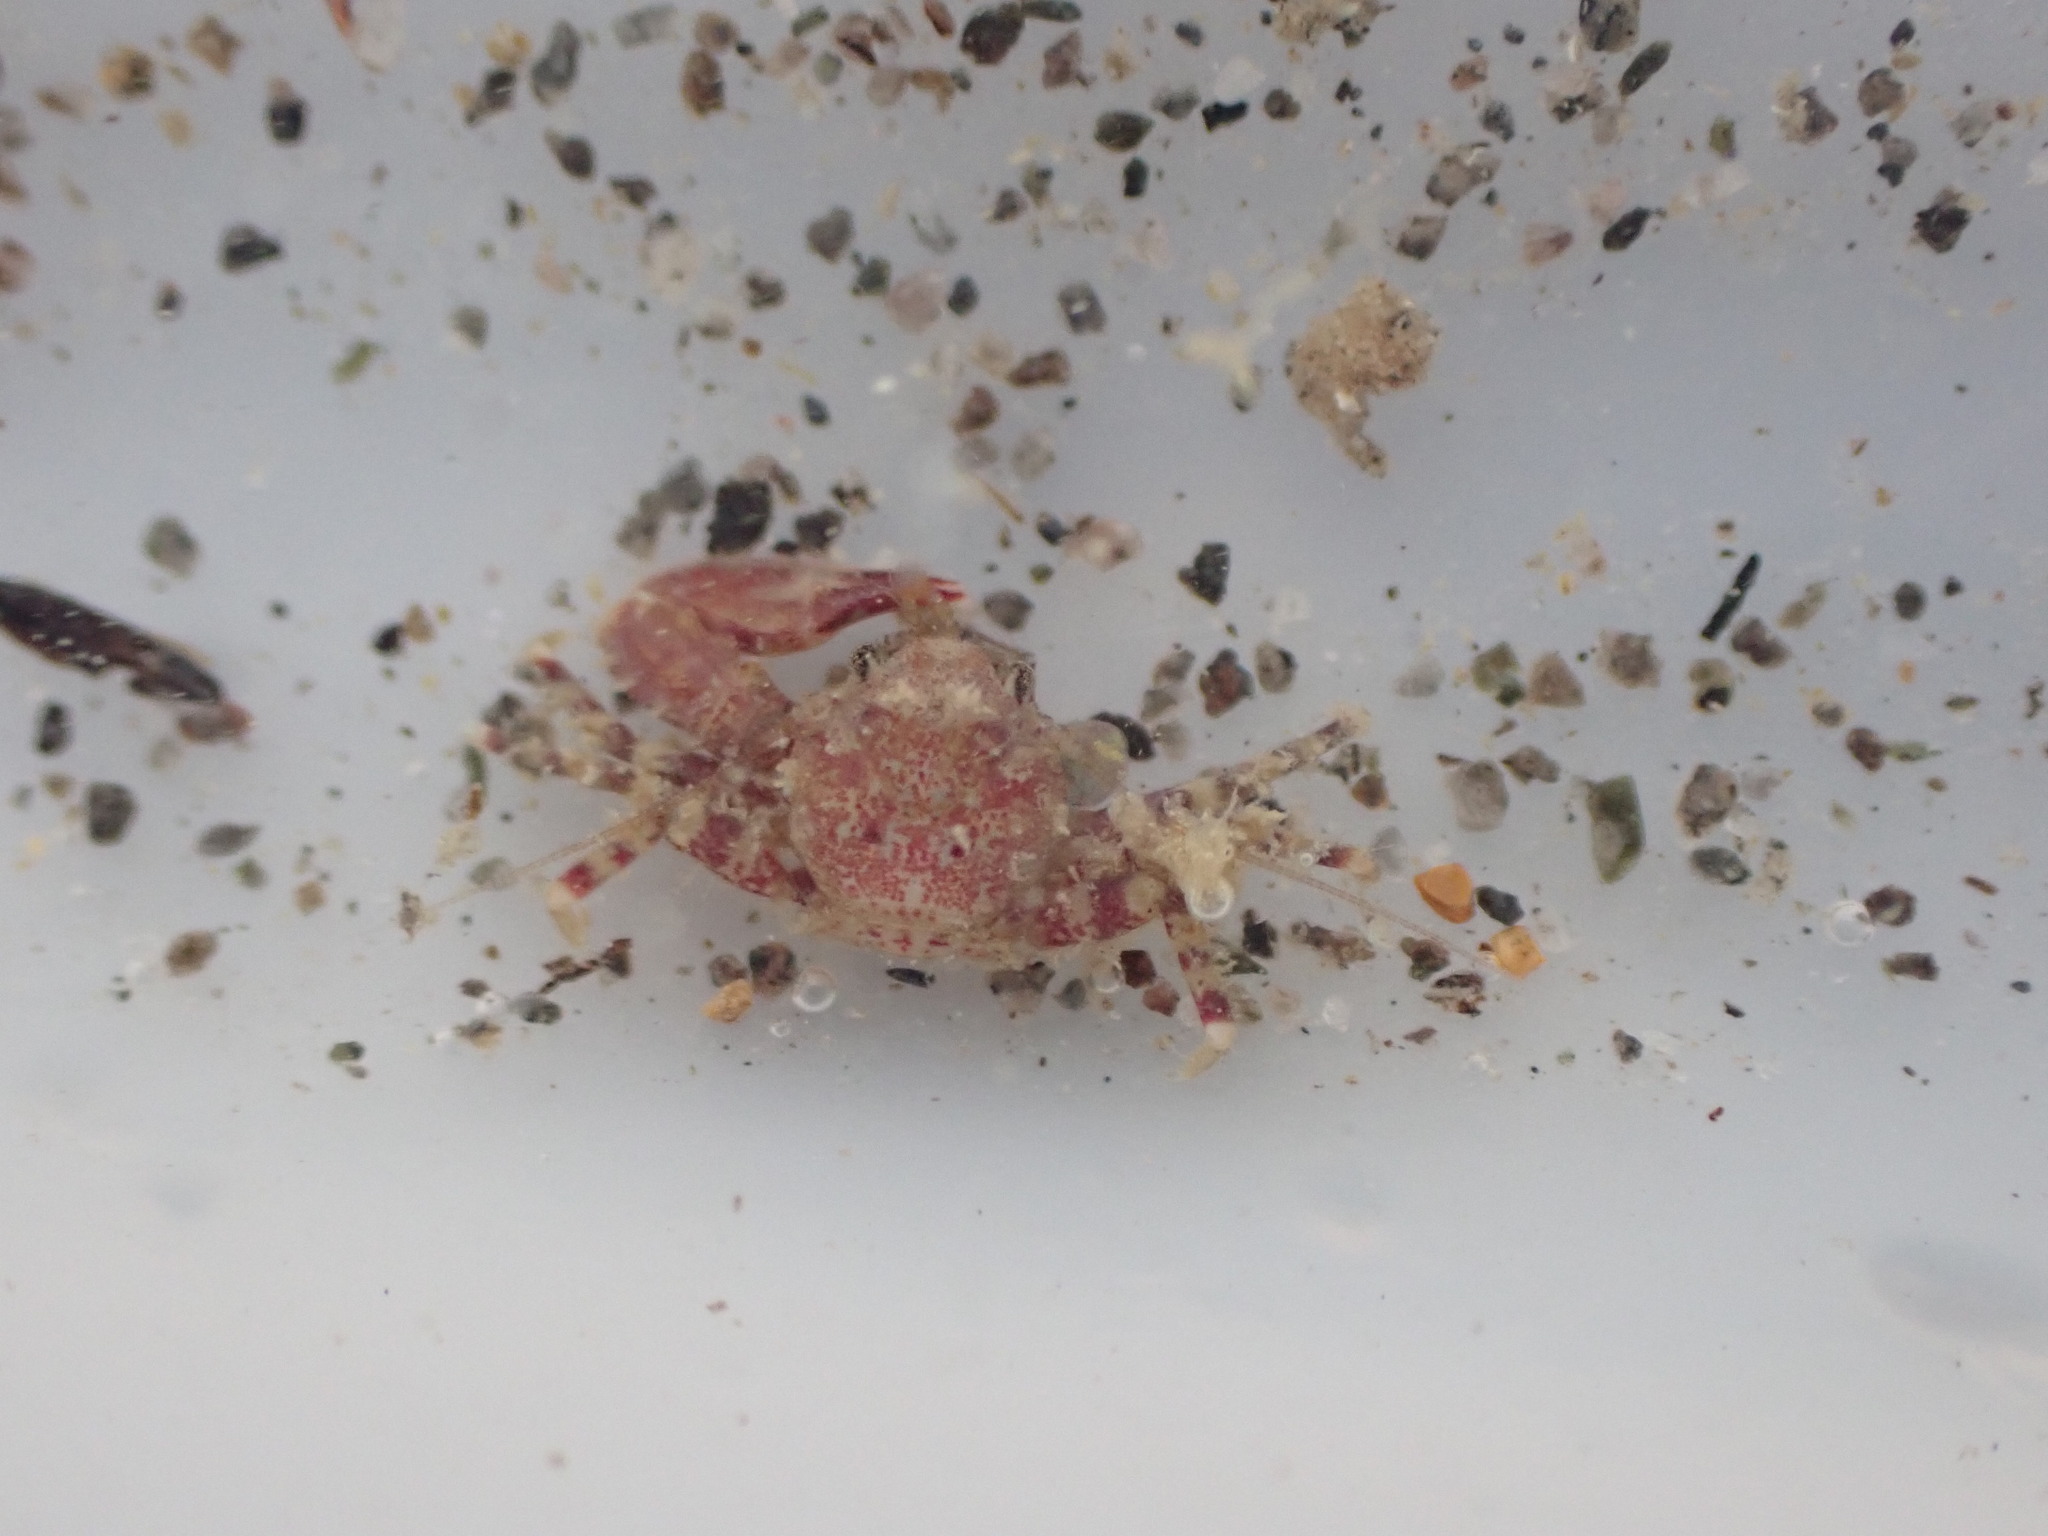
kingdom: Animalia
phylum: Arthropoda
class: Malacostraca
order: Decapoda
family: Porcellanidae
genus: Petrolisthes
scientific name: Petrolisthes novaezelandiae
